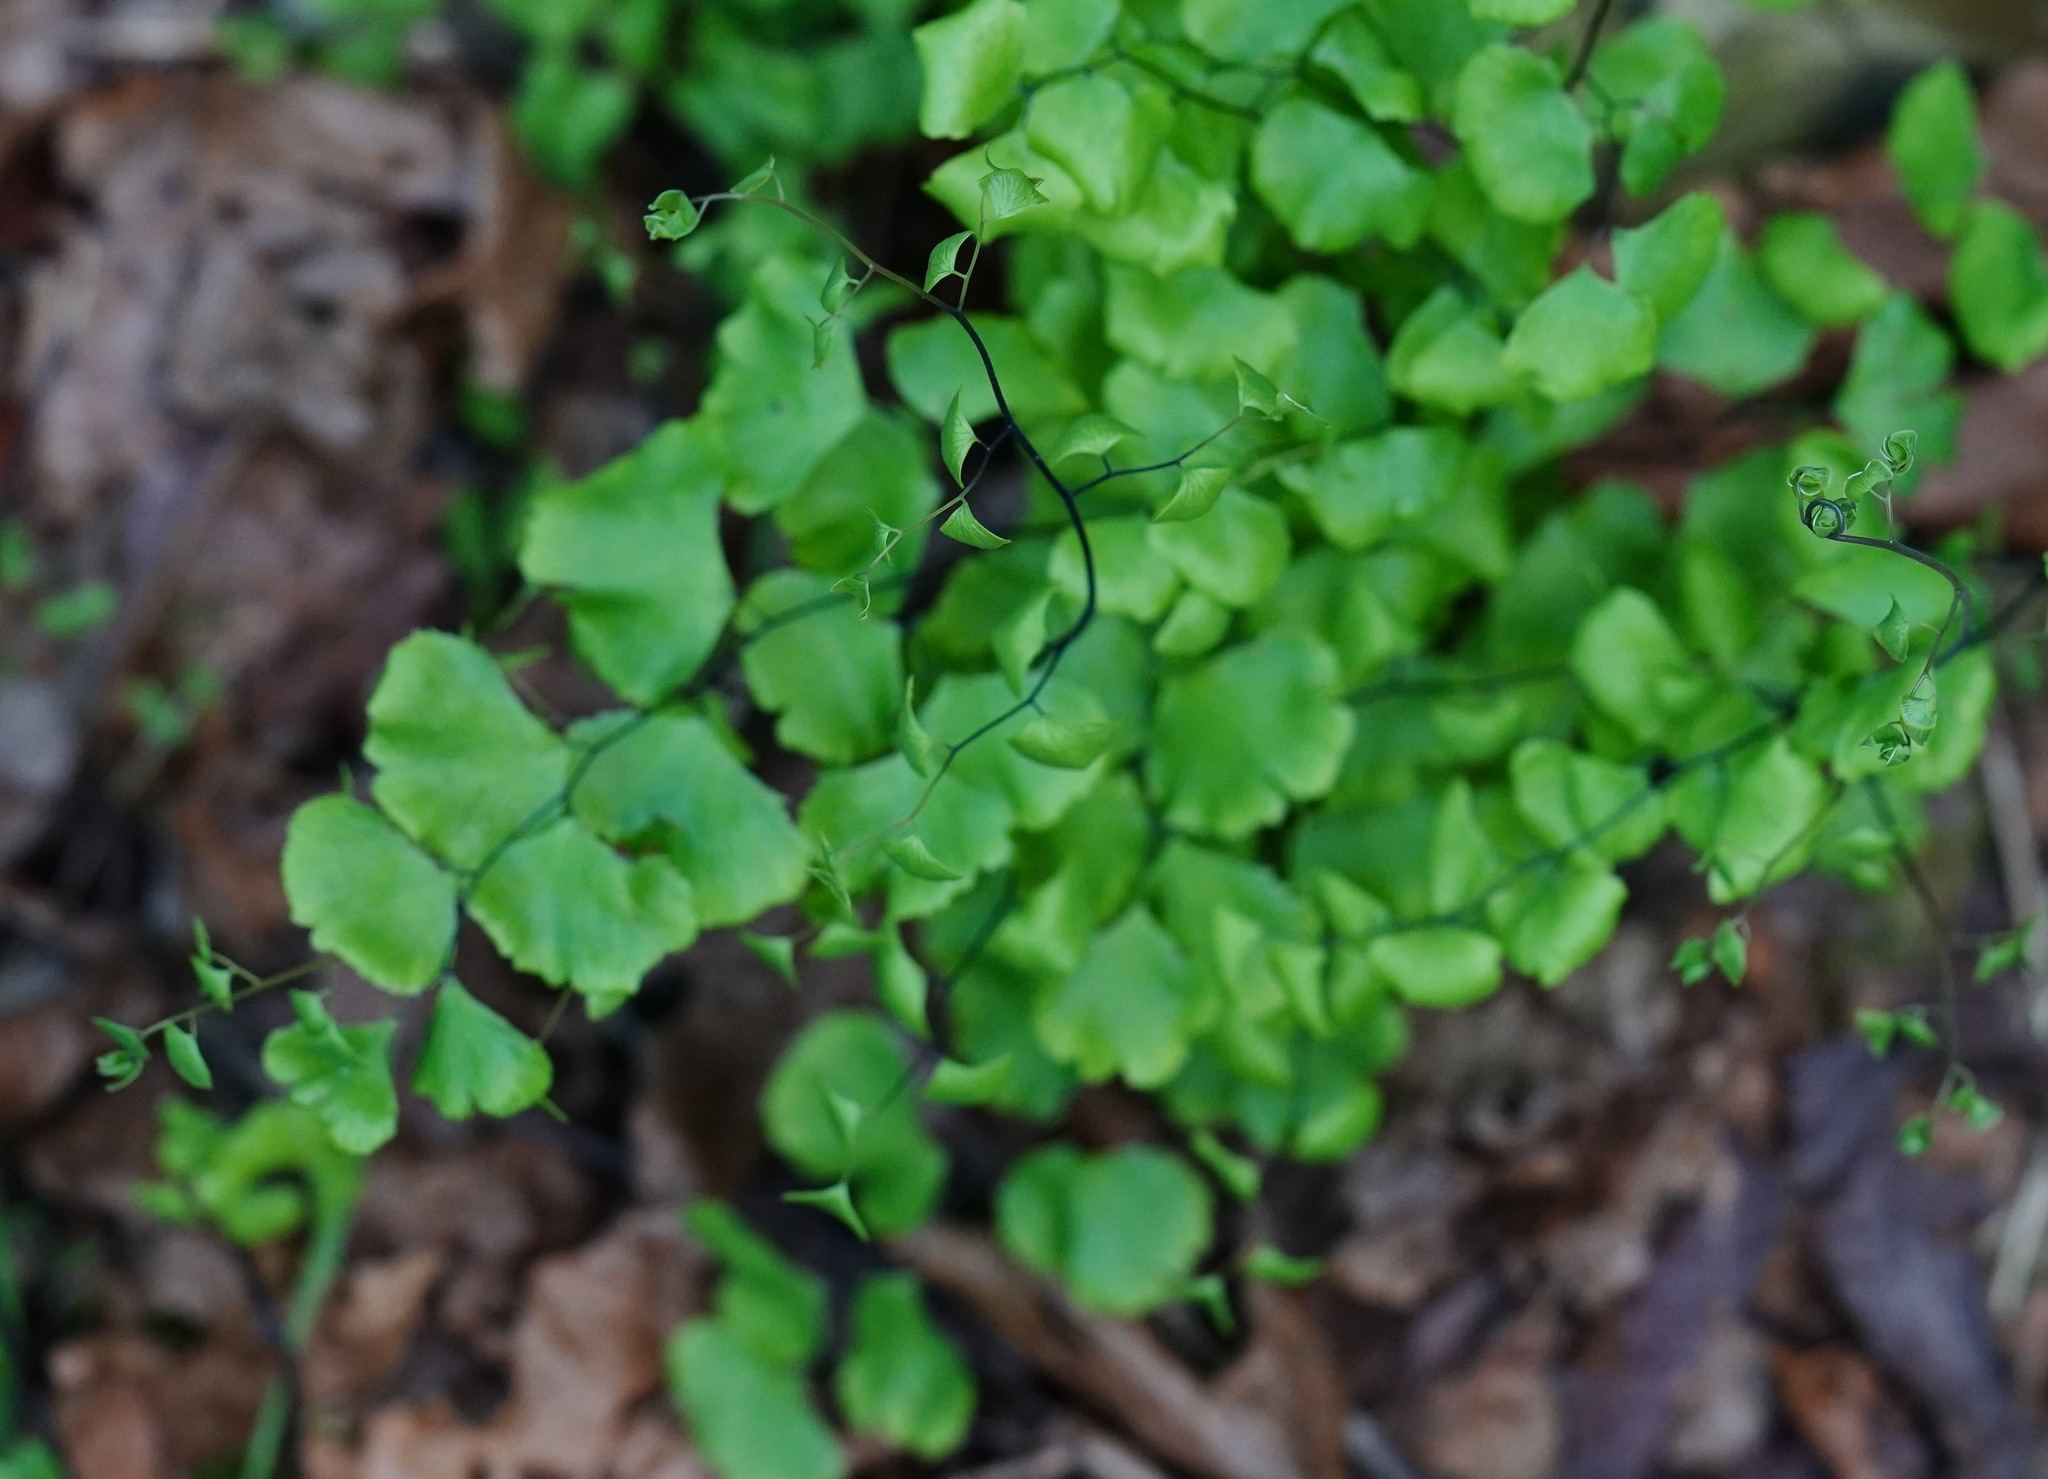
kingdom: Plantae
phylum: Tracheophyta
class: Polypodiopsida
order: Polypodiales
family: Pteridaceae
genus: Adiantum
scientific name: Adiantum jordanii
